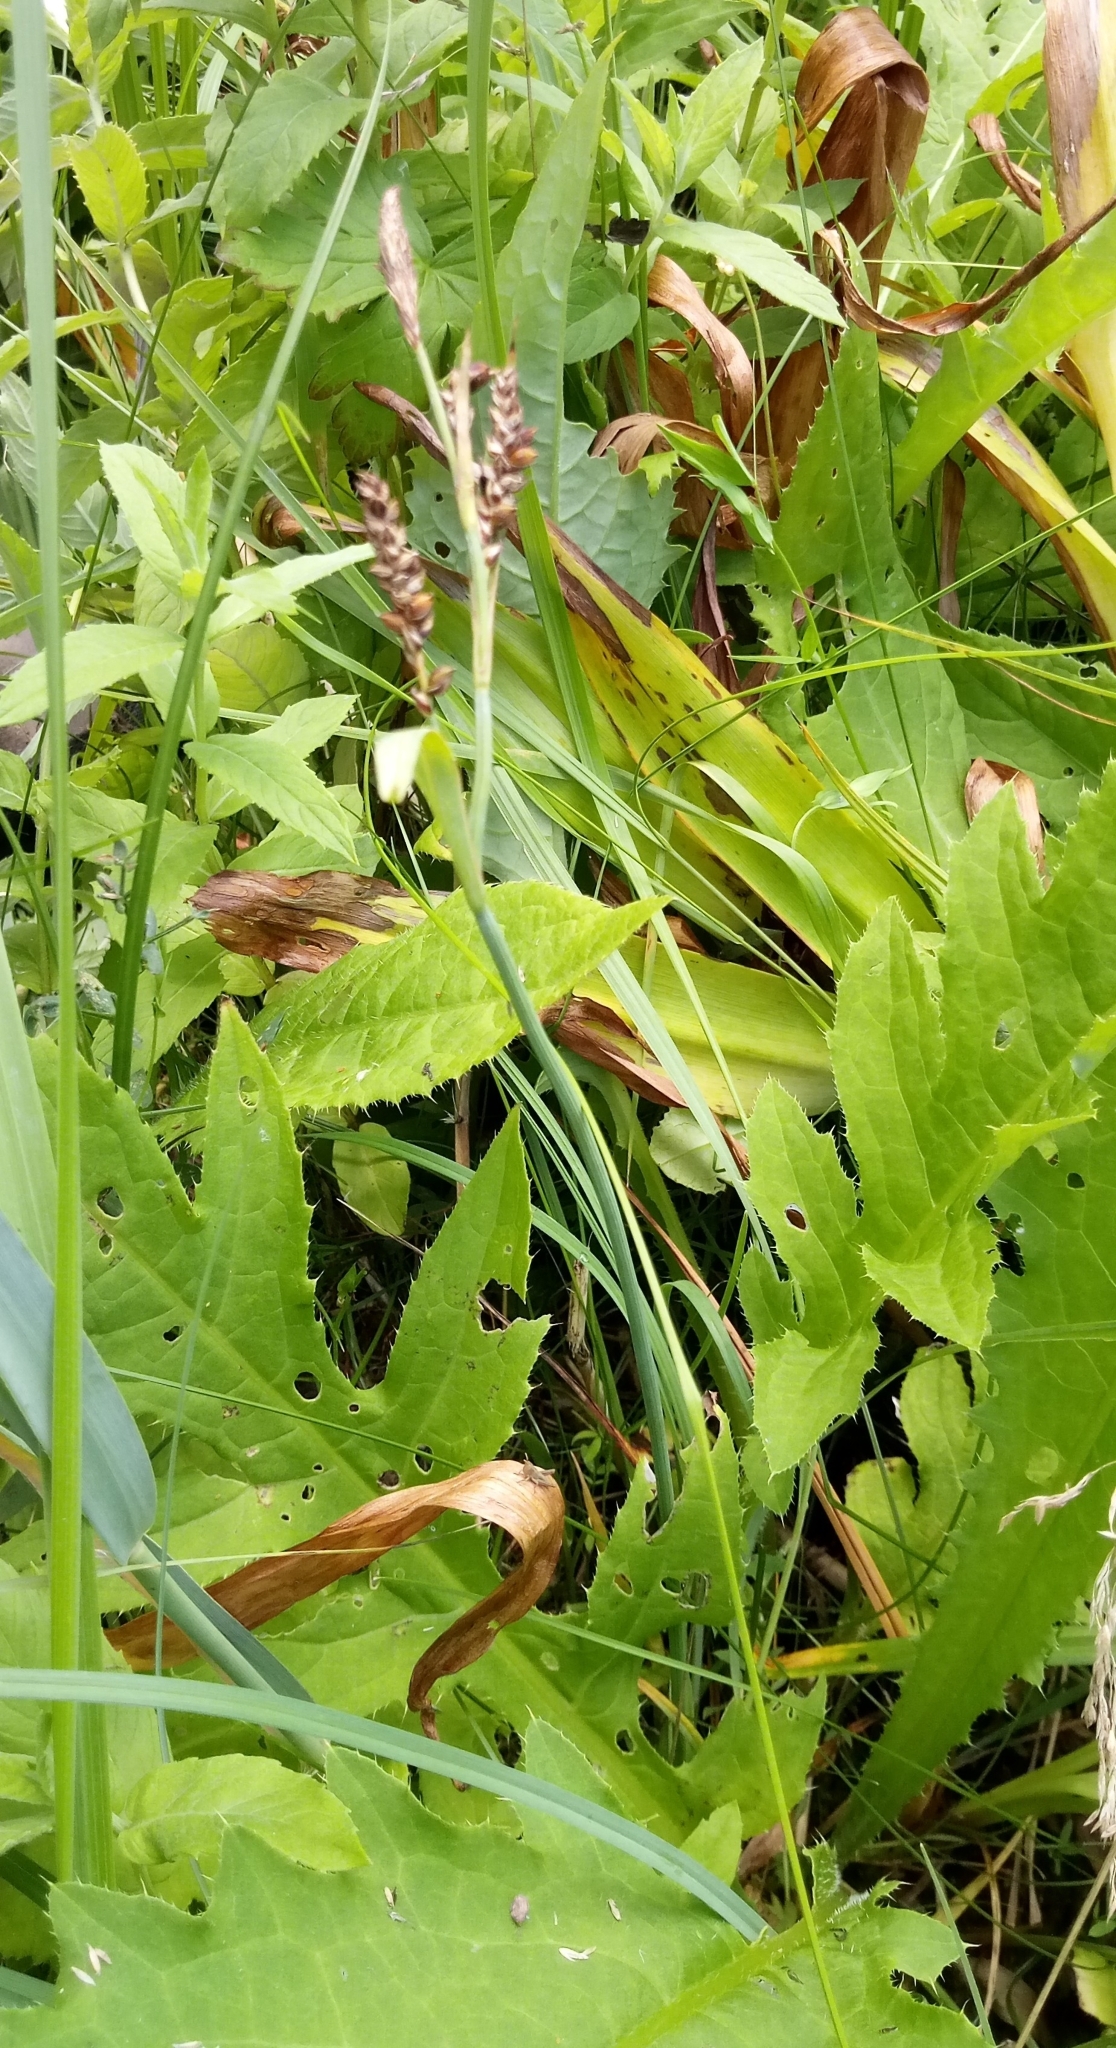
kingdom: Plantae
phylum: Tracheophyta
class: Liliopsida
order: Poales
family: Cyperaceae
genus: Carex
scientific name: Carex panicea
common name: Carnation sedge
